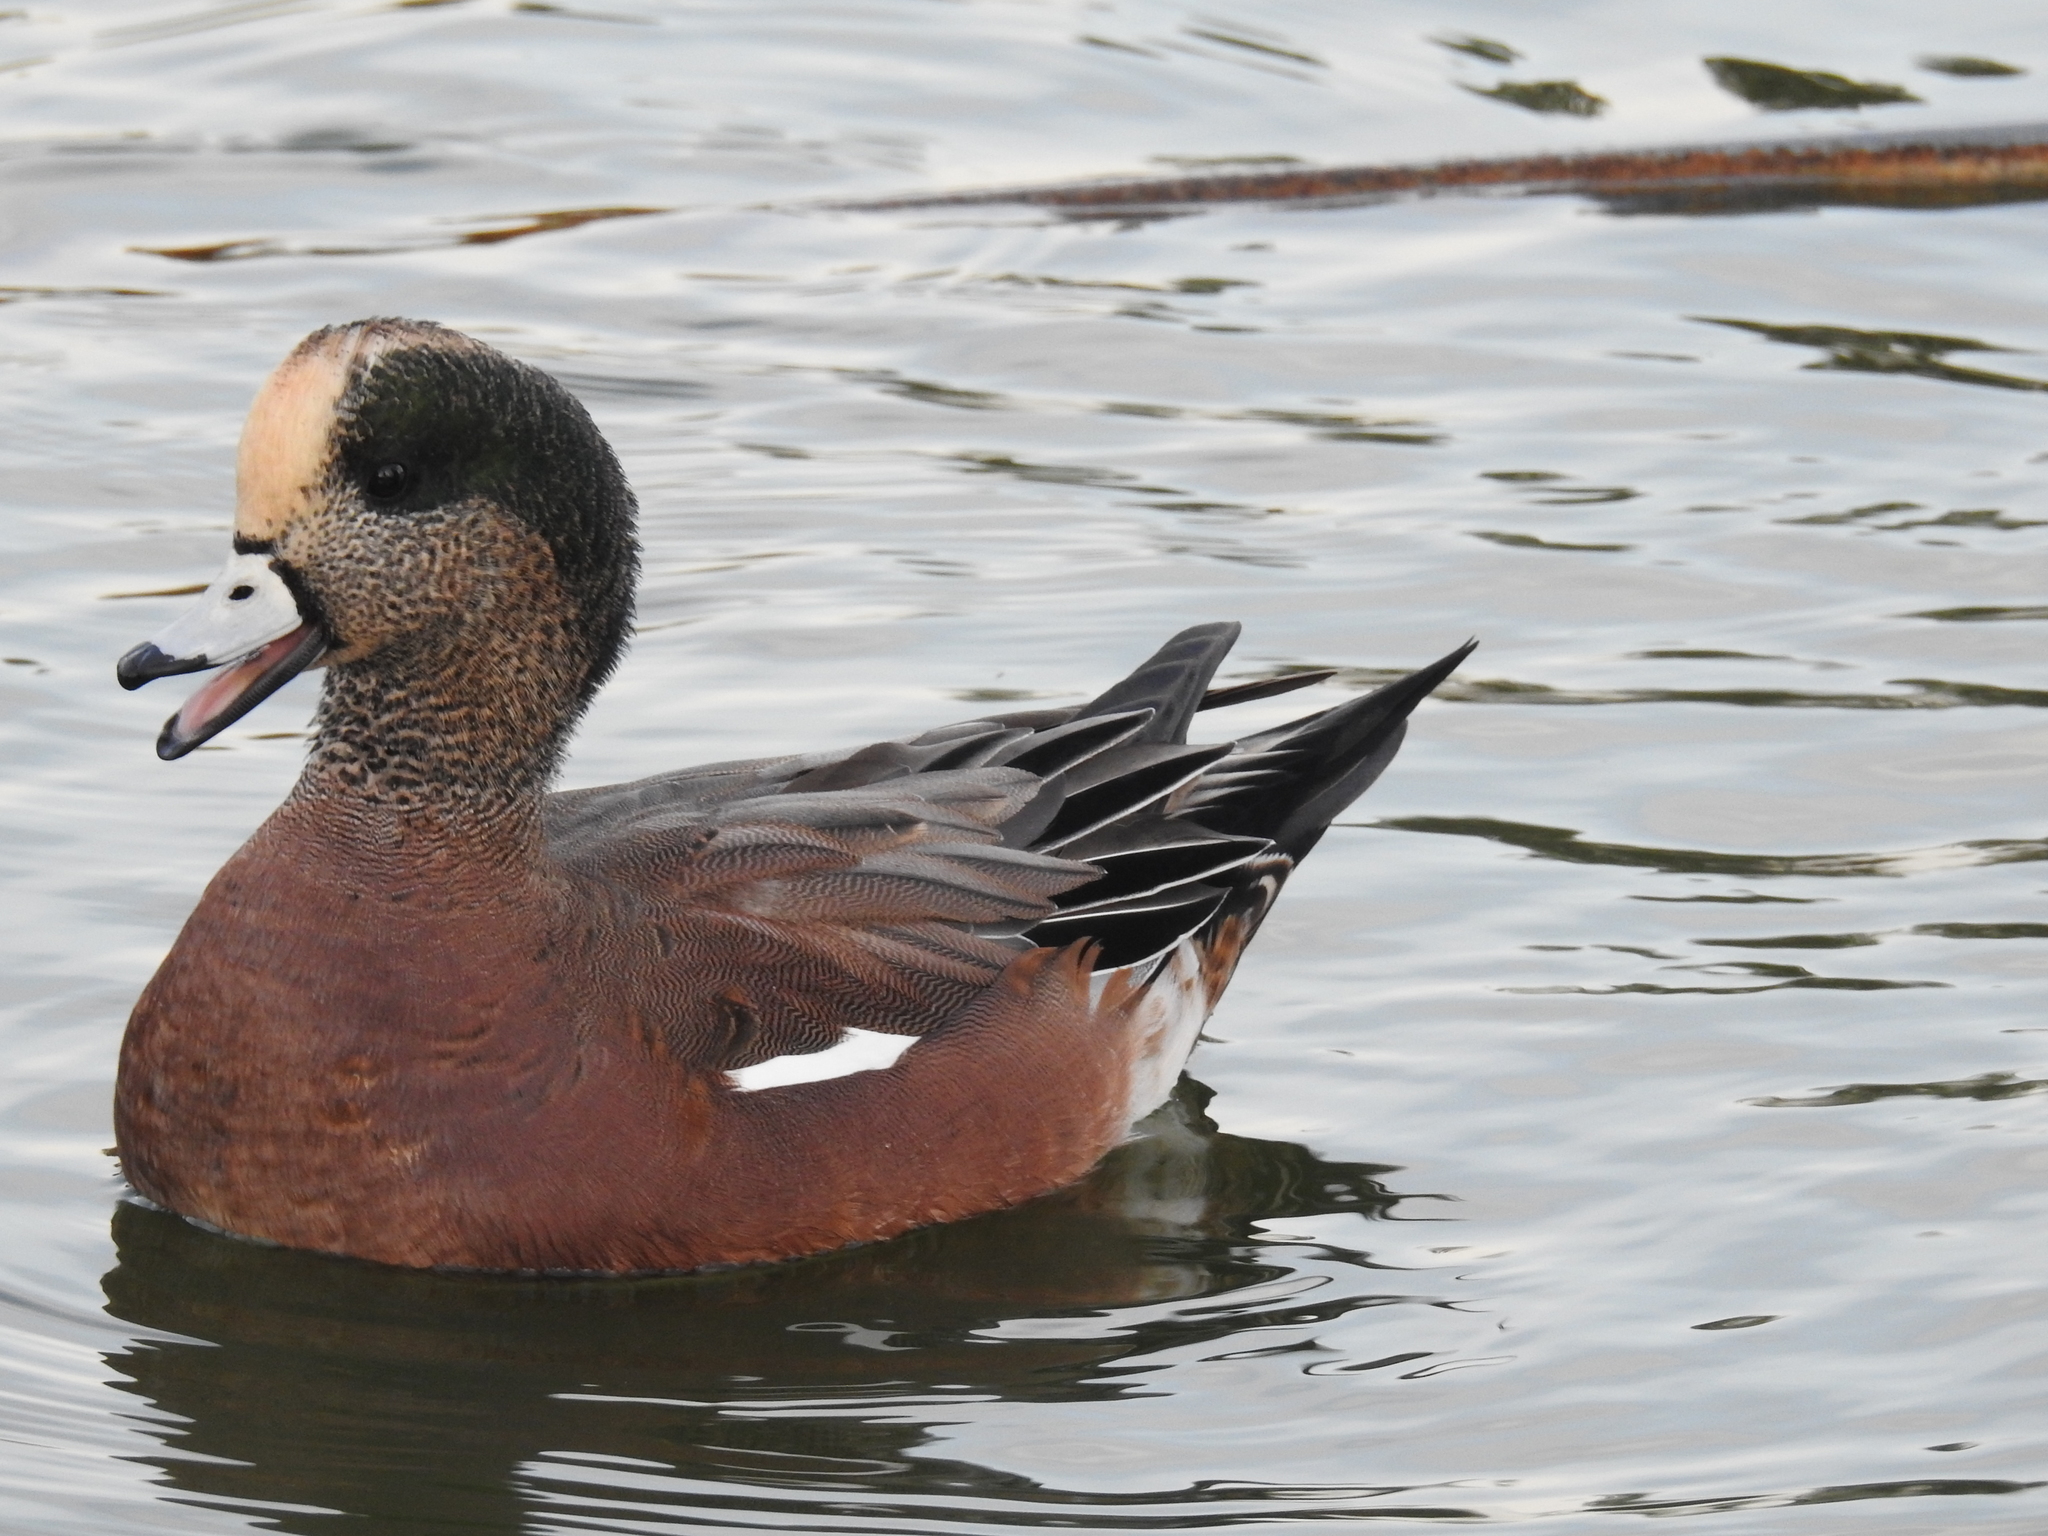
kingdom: Animalia
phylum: Chordata
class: Aves
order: Anseriformes
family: Anatidae
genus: Mareca
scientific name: Mareca americana
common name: American wigeon
